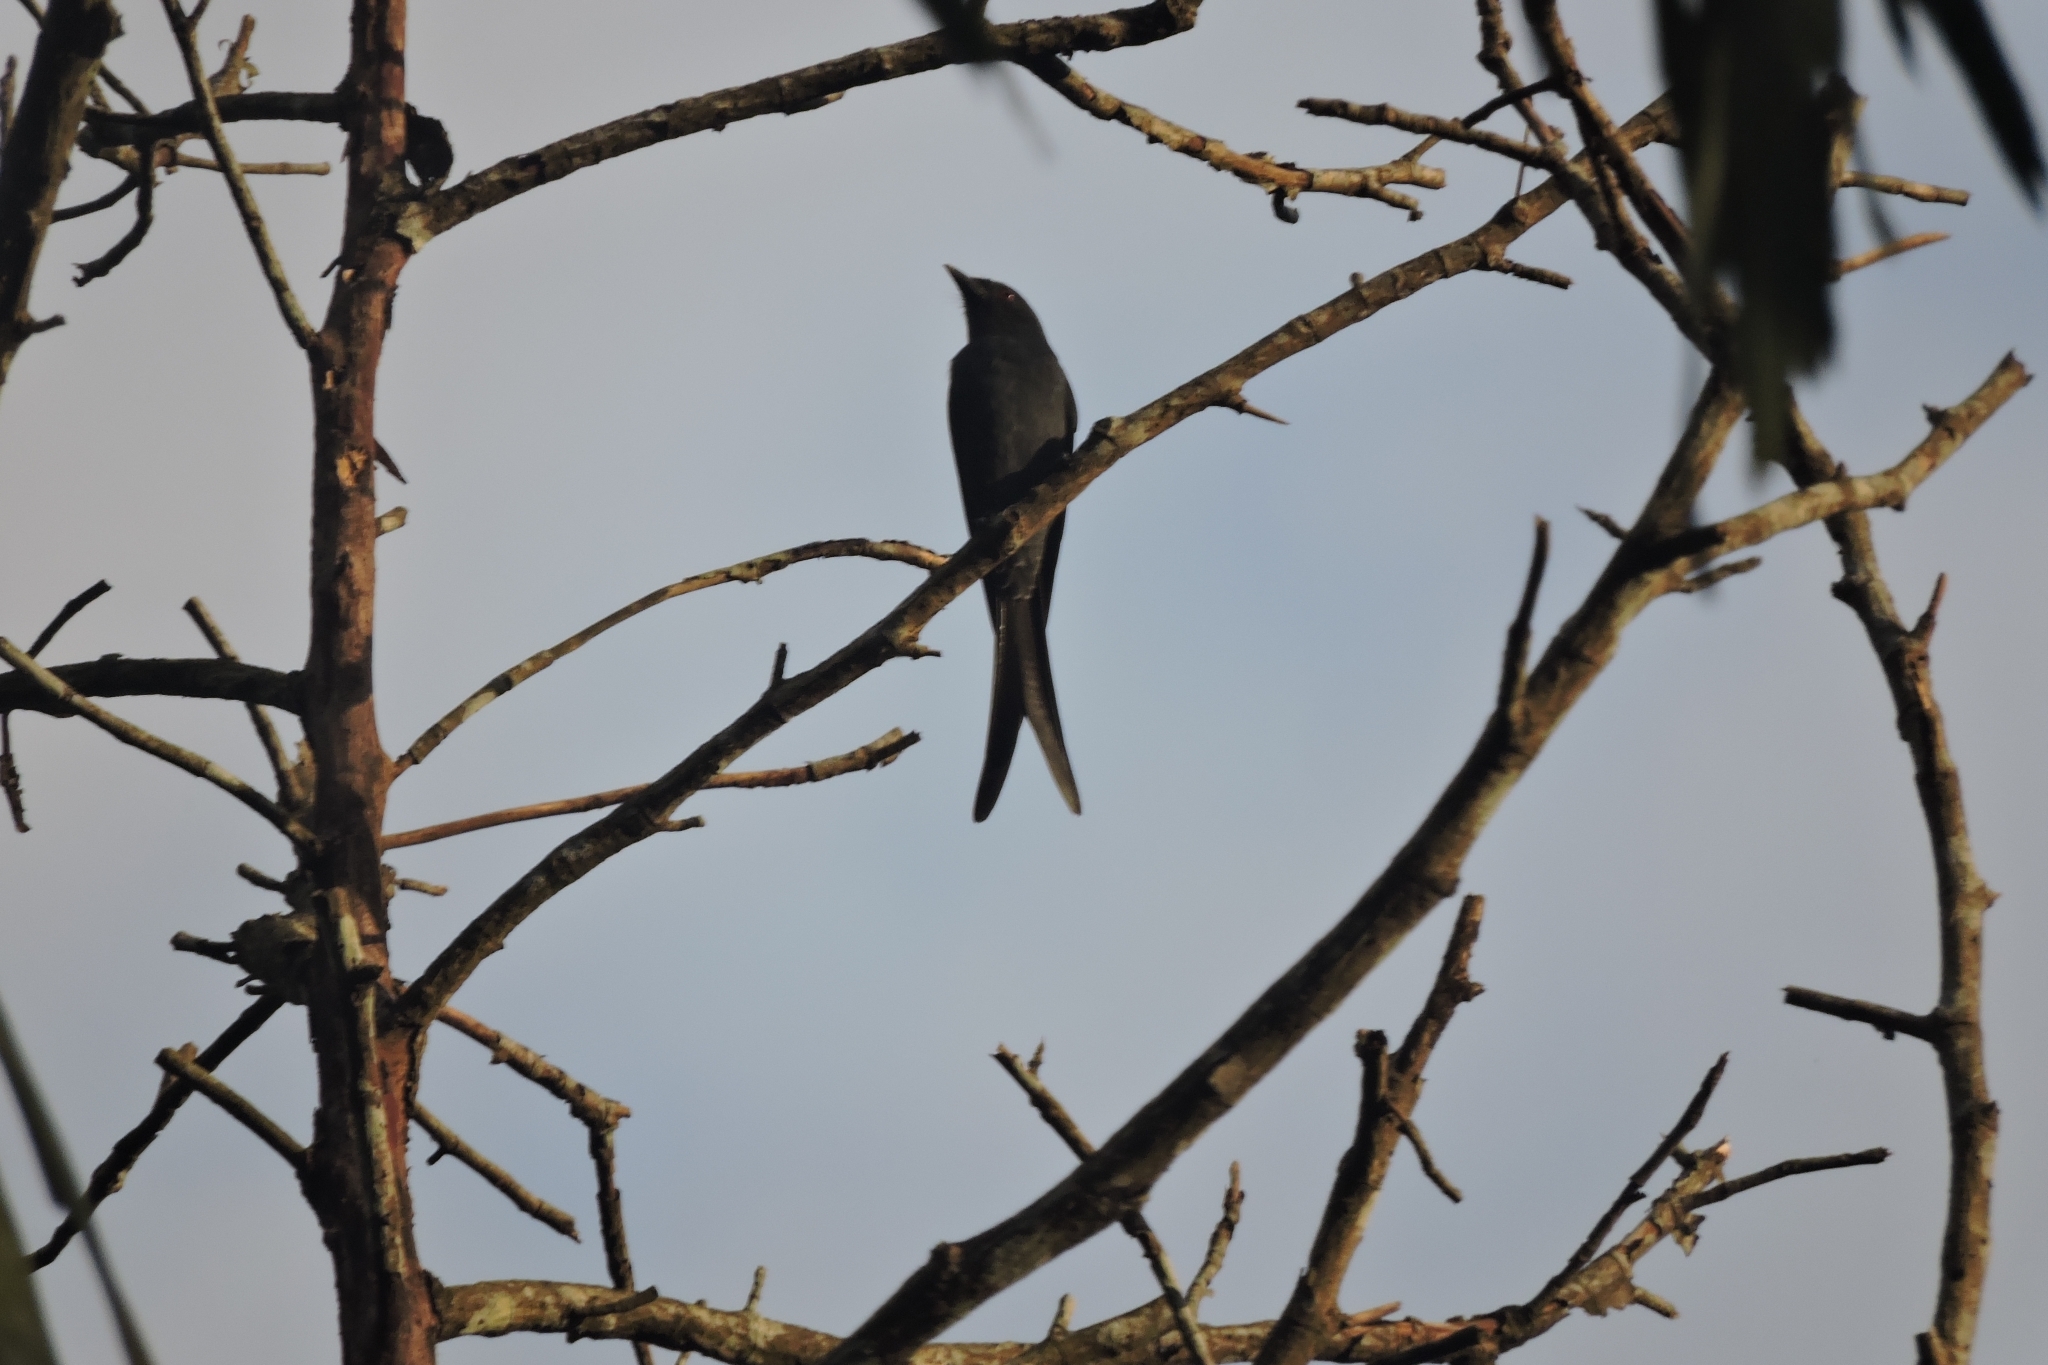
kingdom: Animalia
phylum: Chordata
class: Aves
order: Passeriformes
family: Dicruridae
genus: Dicrurus
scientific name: Dicrurus leucophaeus
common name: Ashy drongo
